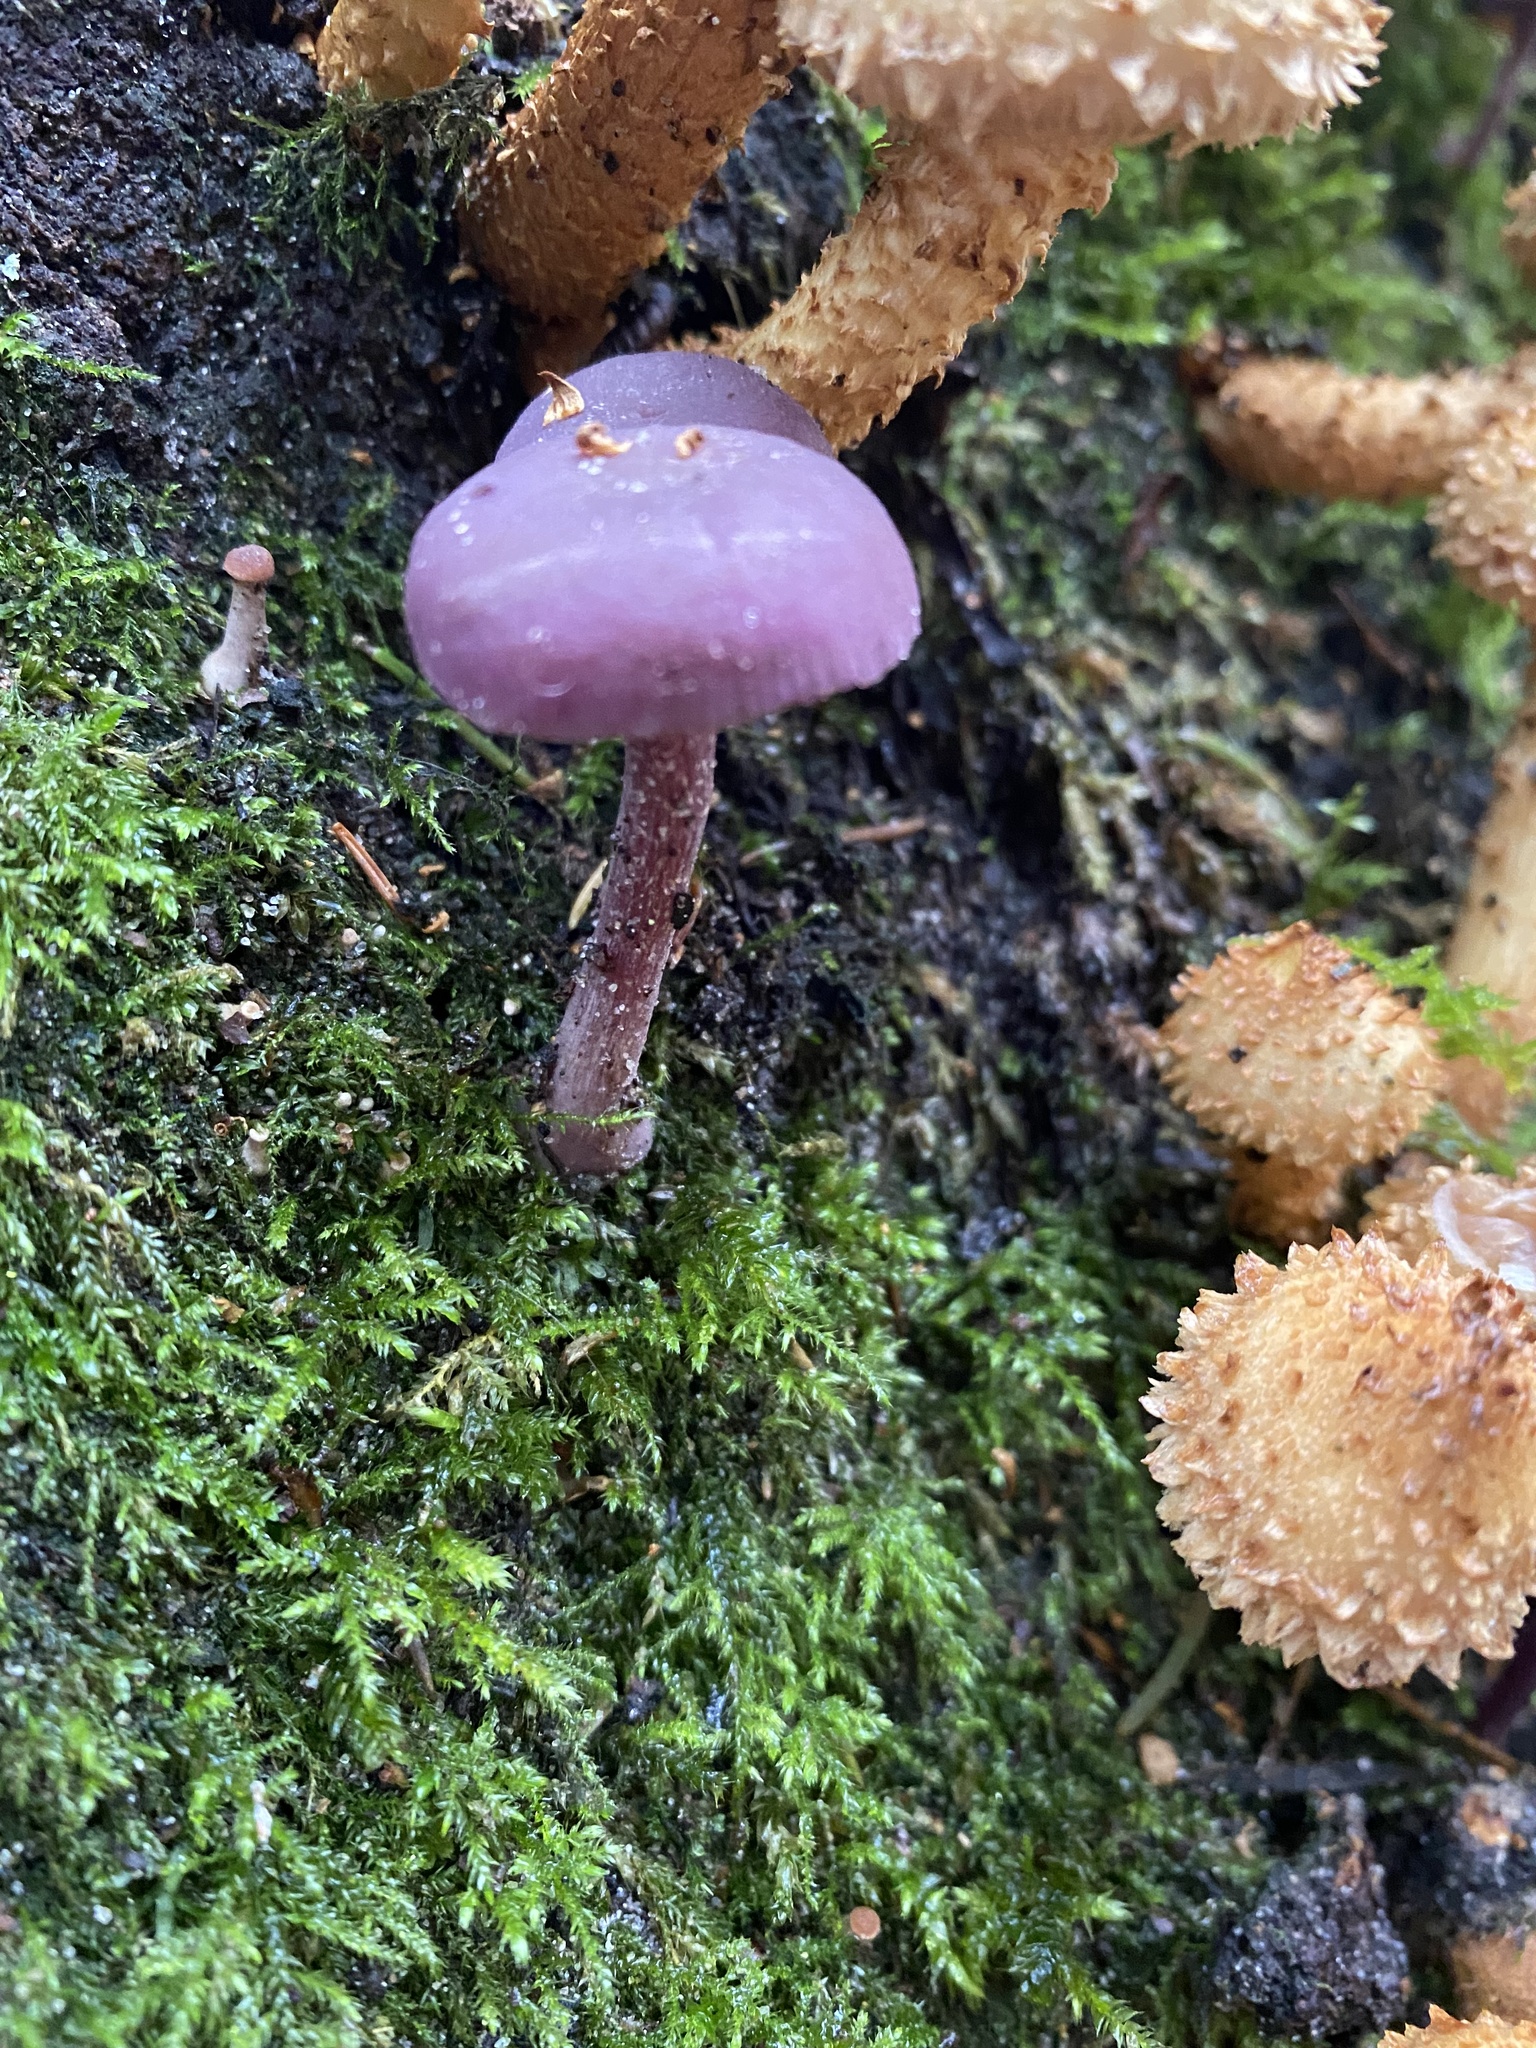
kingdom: Fungi
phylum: Basidiomycota
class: Agaricomycetes
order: Agaricales
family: Hydnangiaceae
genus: Laccaria
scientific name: Laccaria amethystina
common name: Amethyst deceiver
